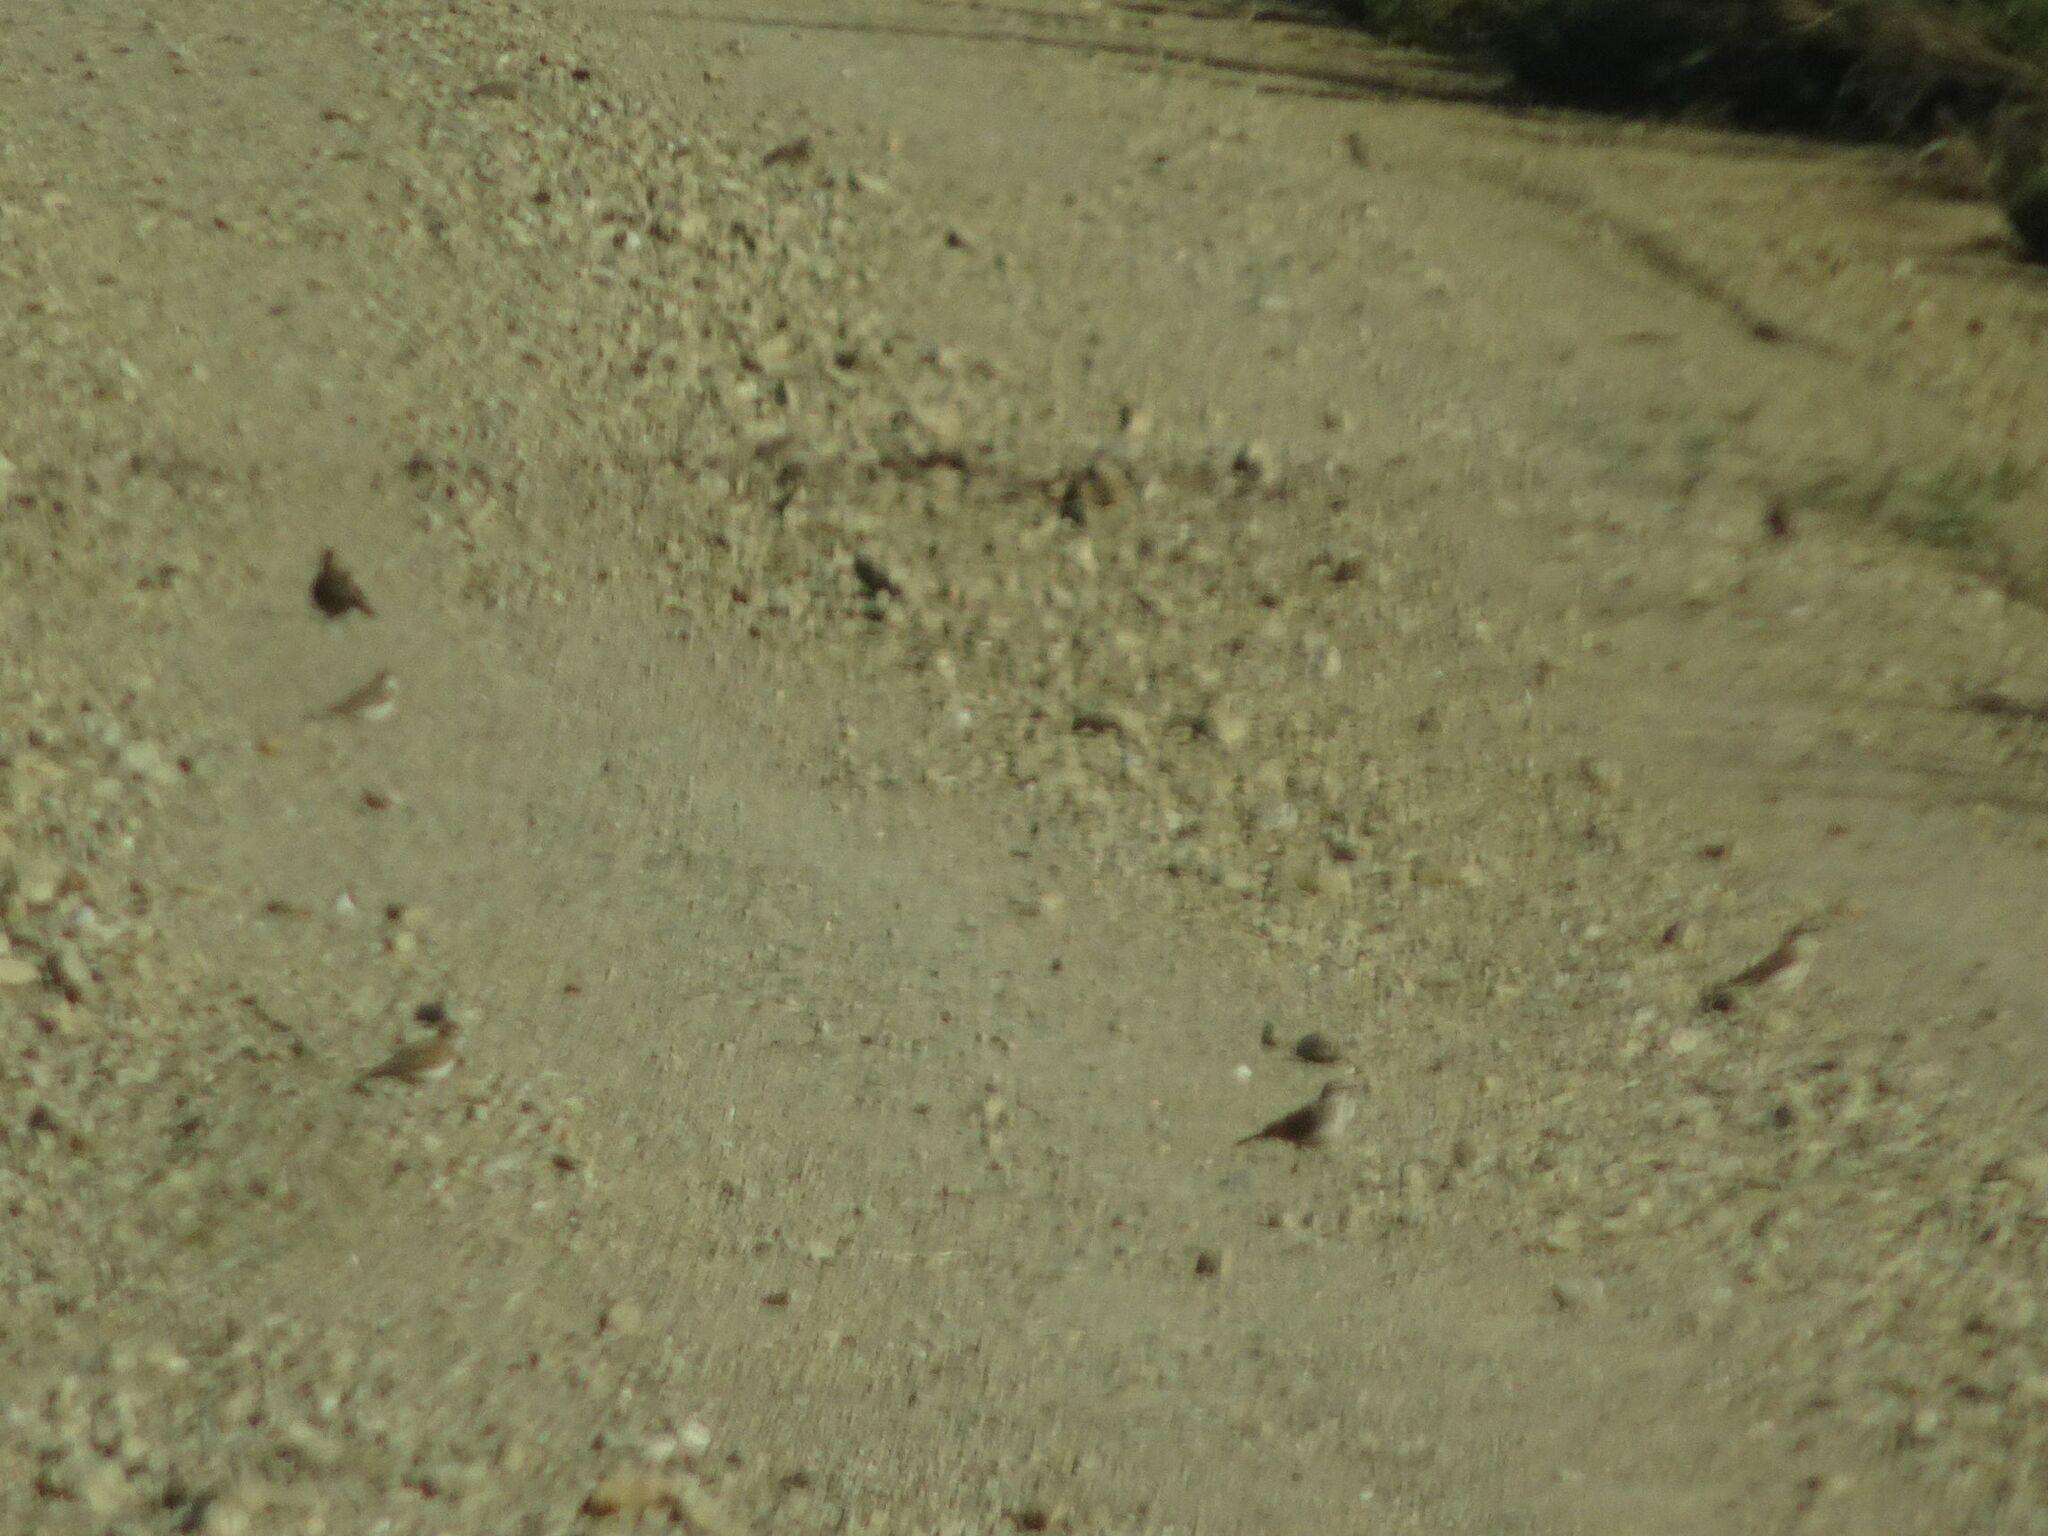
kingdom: Animalia
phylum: Chordata
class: Aves
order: Passeriformes
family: Alaudidae
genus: Calandrella
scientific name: Calandrella cinerea
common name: Red-capped lark
